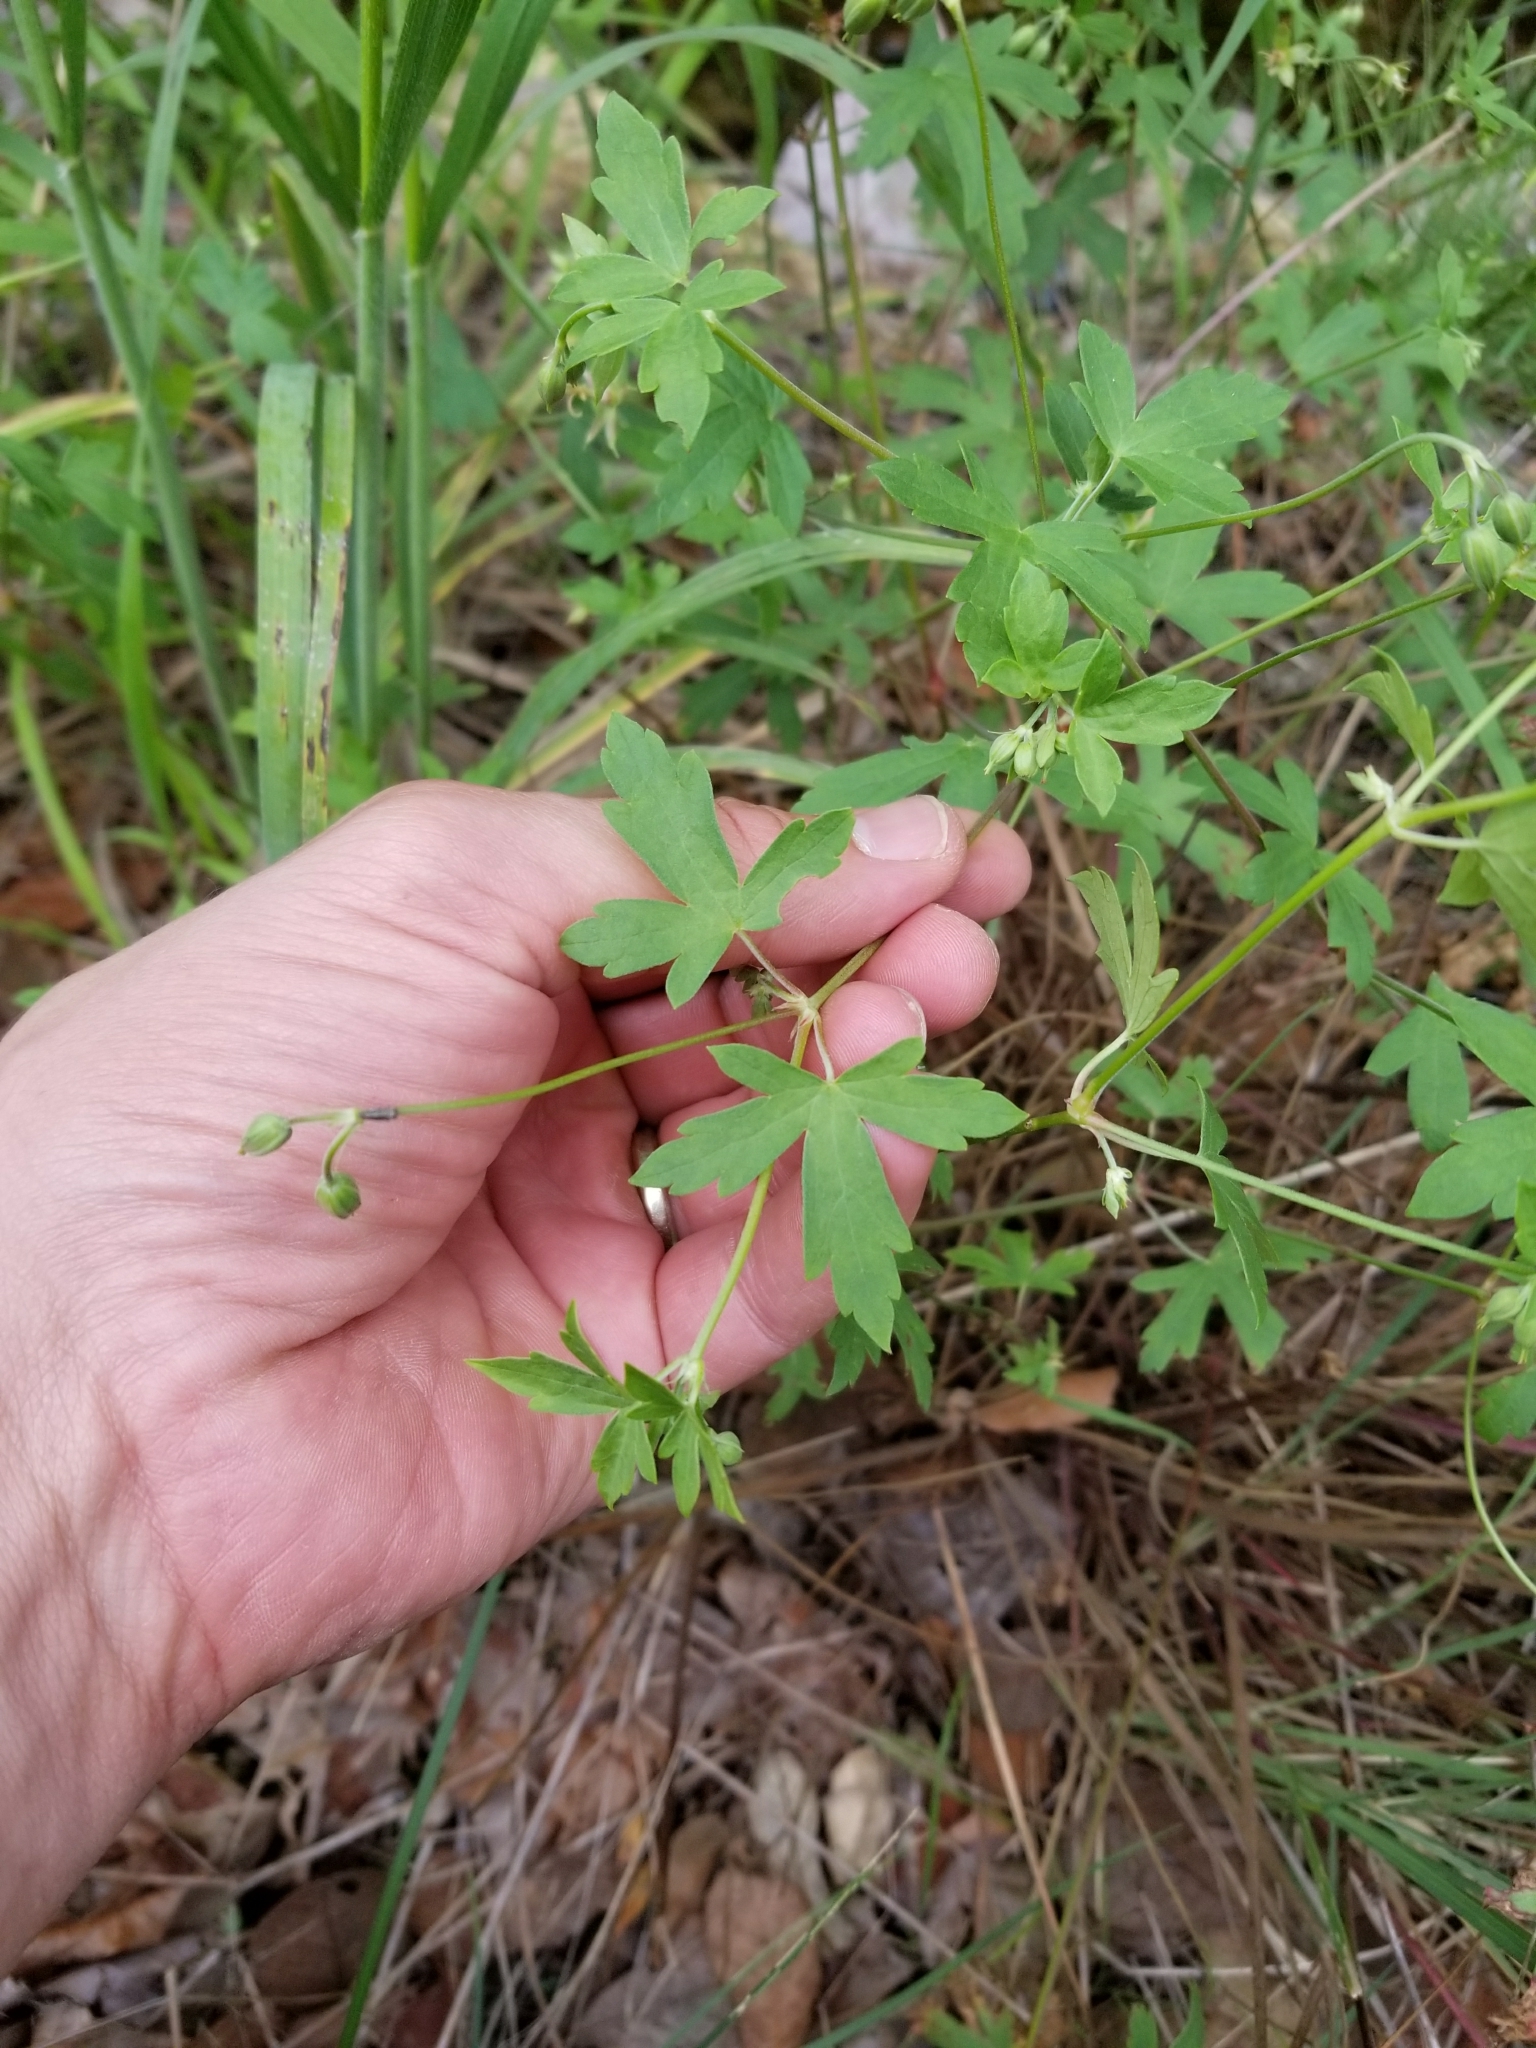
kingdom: Plantae
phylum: Tracheophyta
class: Magnoliopsida
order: Geraniales
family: Geraniaceae
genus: Geranium
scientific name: Geranium caespitosum
